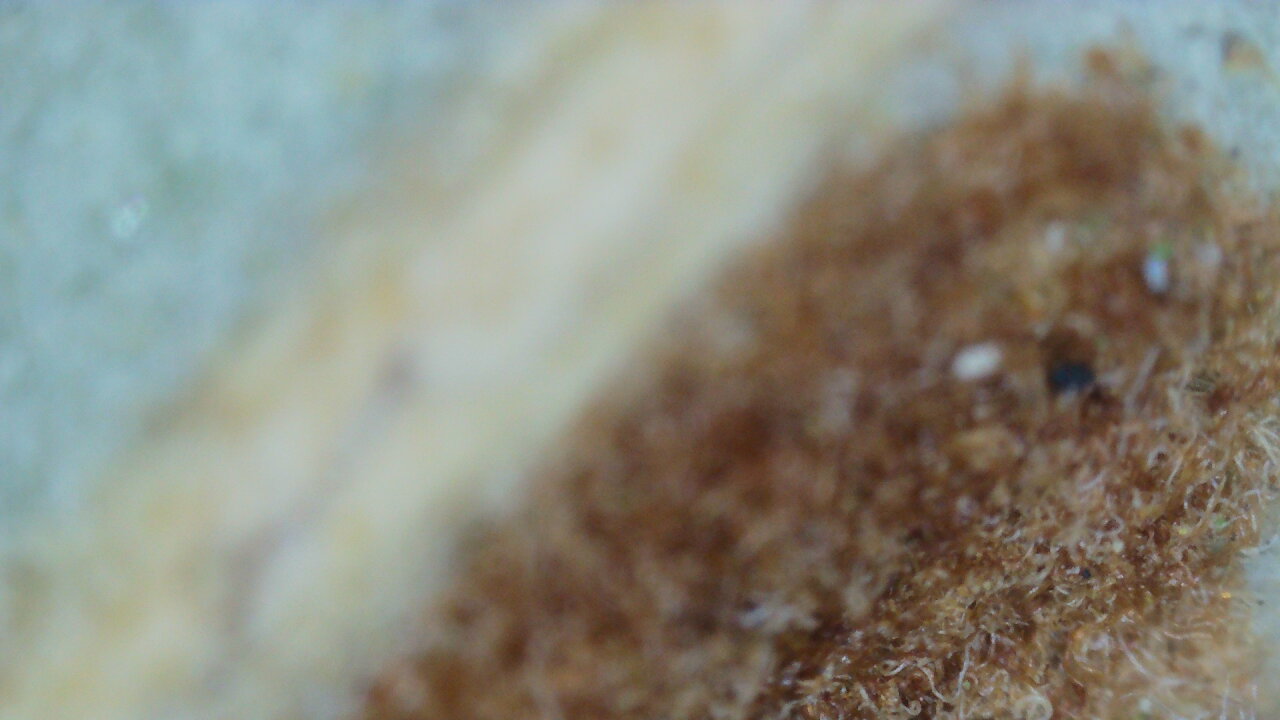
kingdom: Animalia
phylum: Arthropoda
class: Arachnida
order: Trombidiformes
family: Eriophyidae
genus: Aceria
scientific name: Aceria ilicis
